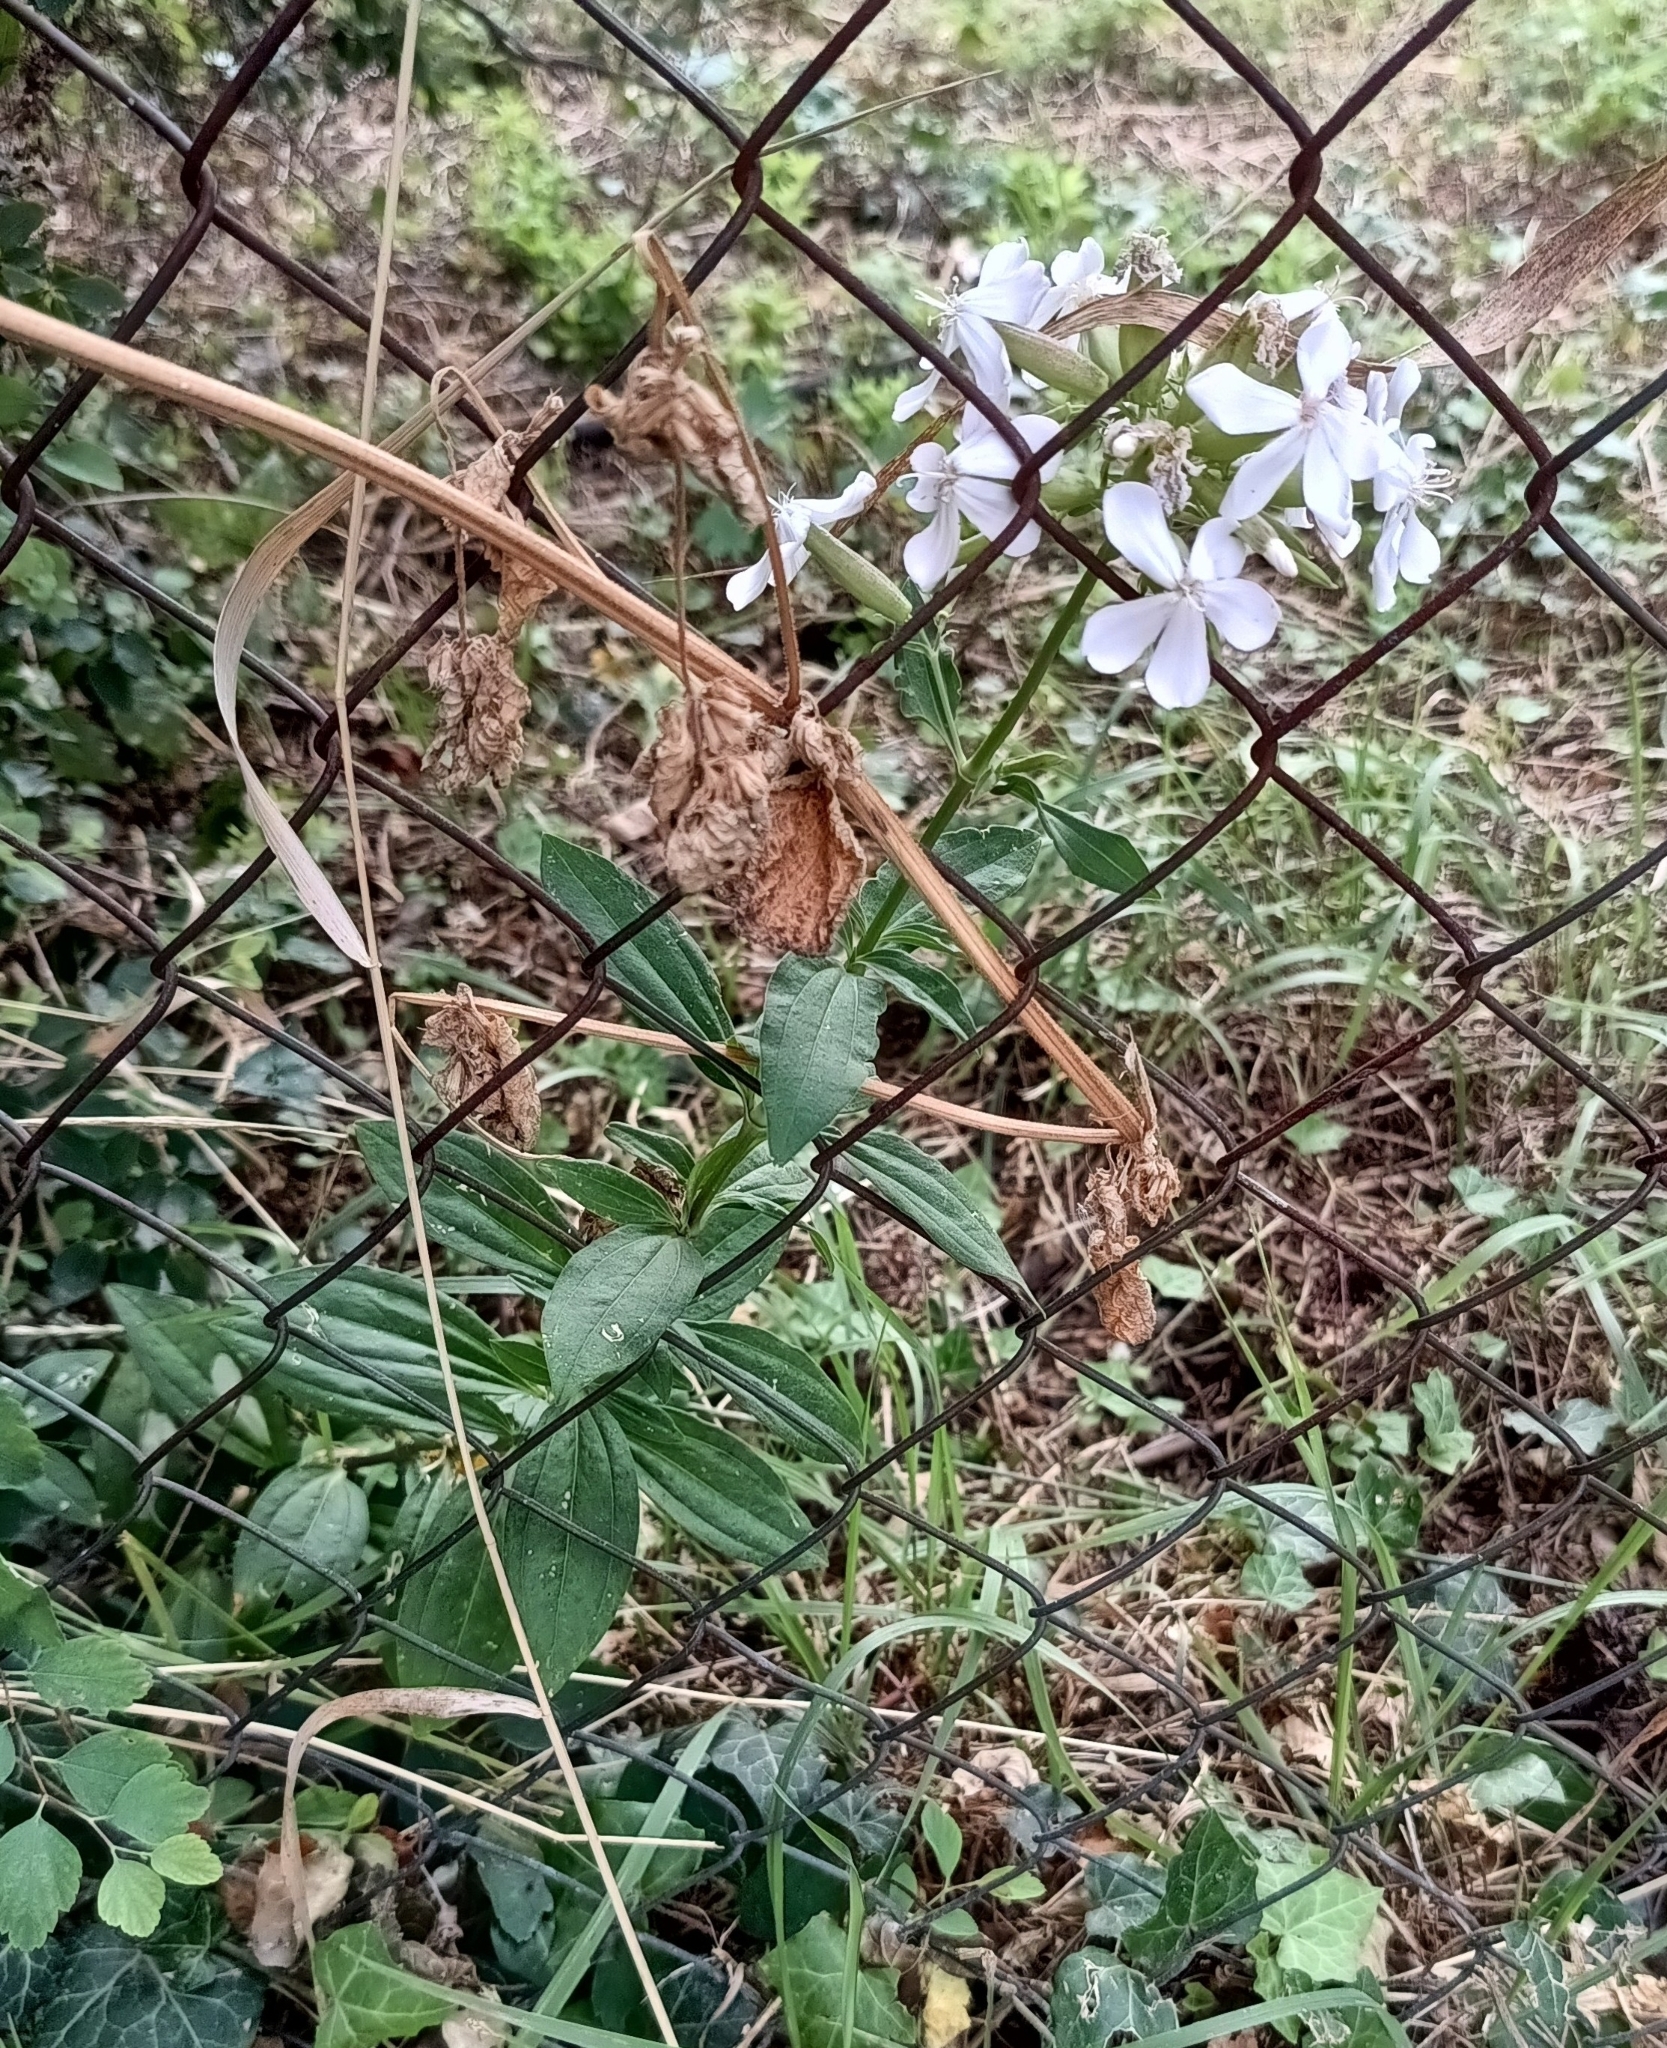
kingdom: Plantae
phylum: Tracheophyta
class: Magnoliopsida
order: Caryophyllales
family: Caryophyllaceae
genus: Saponaria
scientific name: Saponaria officinalis
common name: Soapwort
